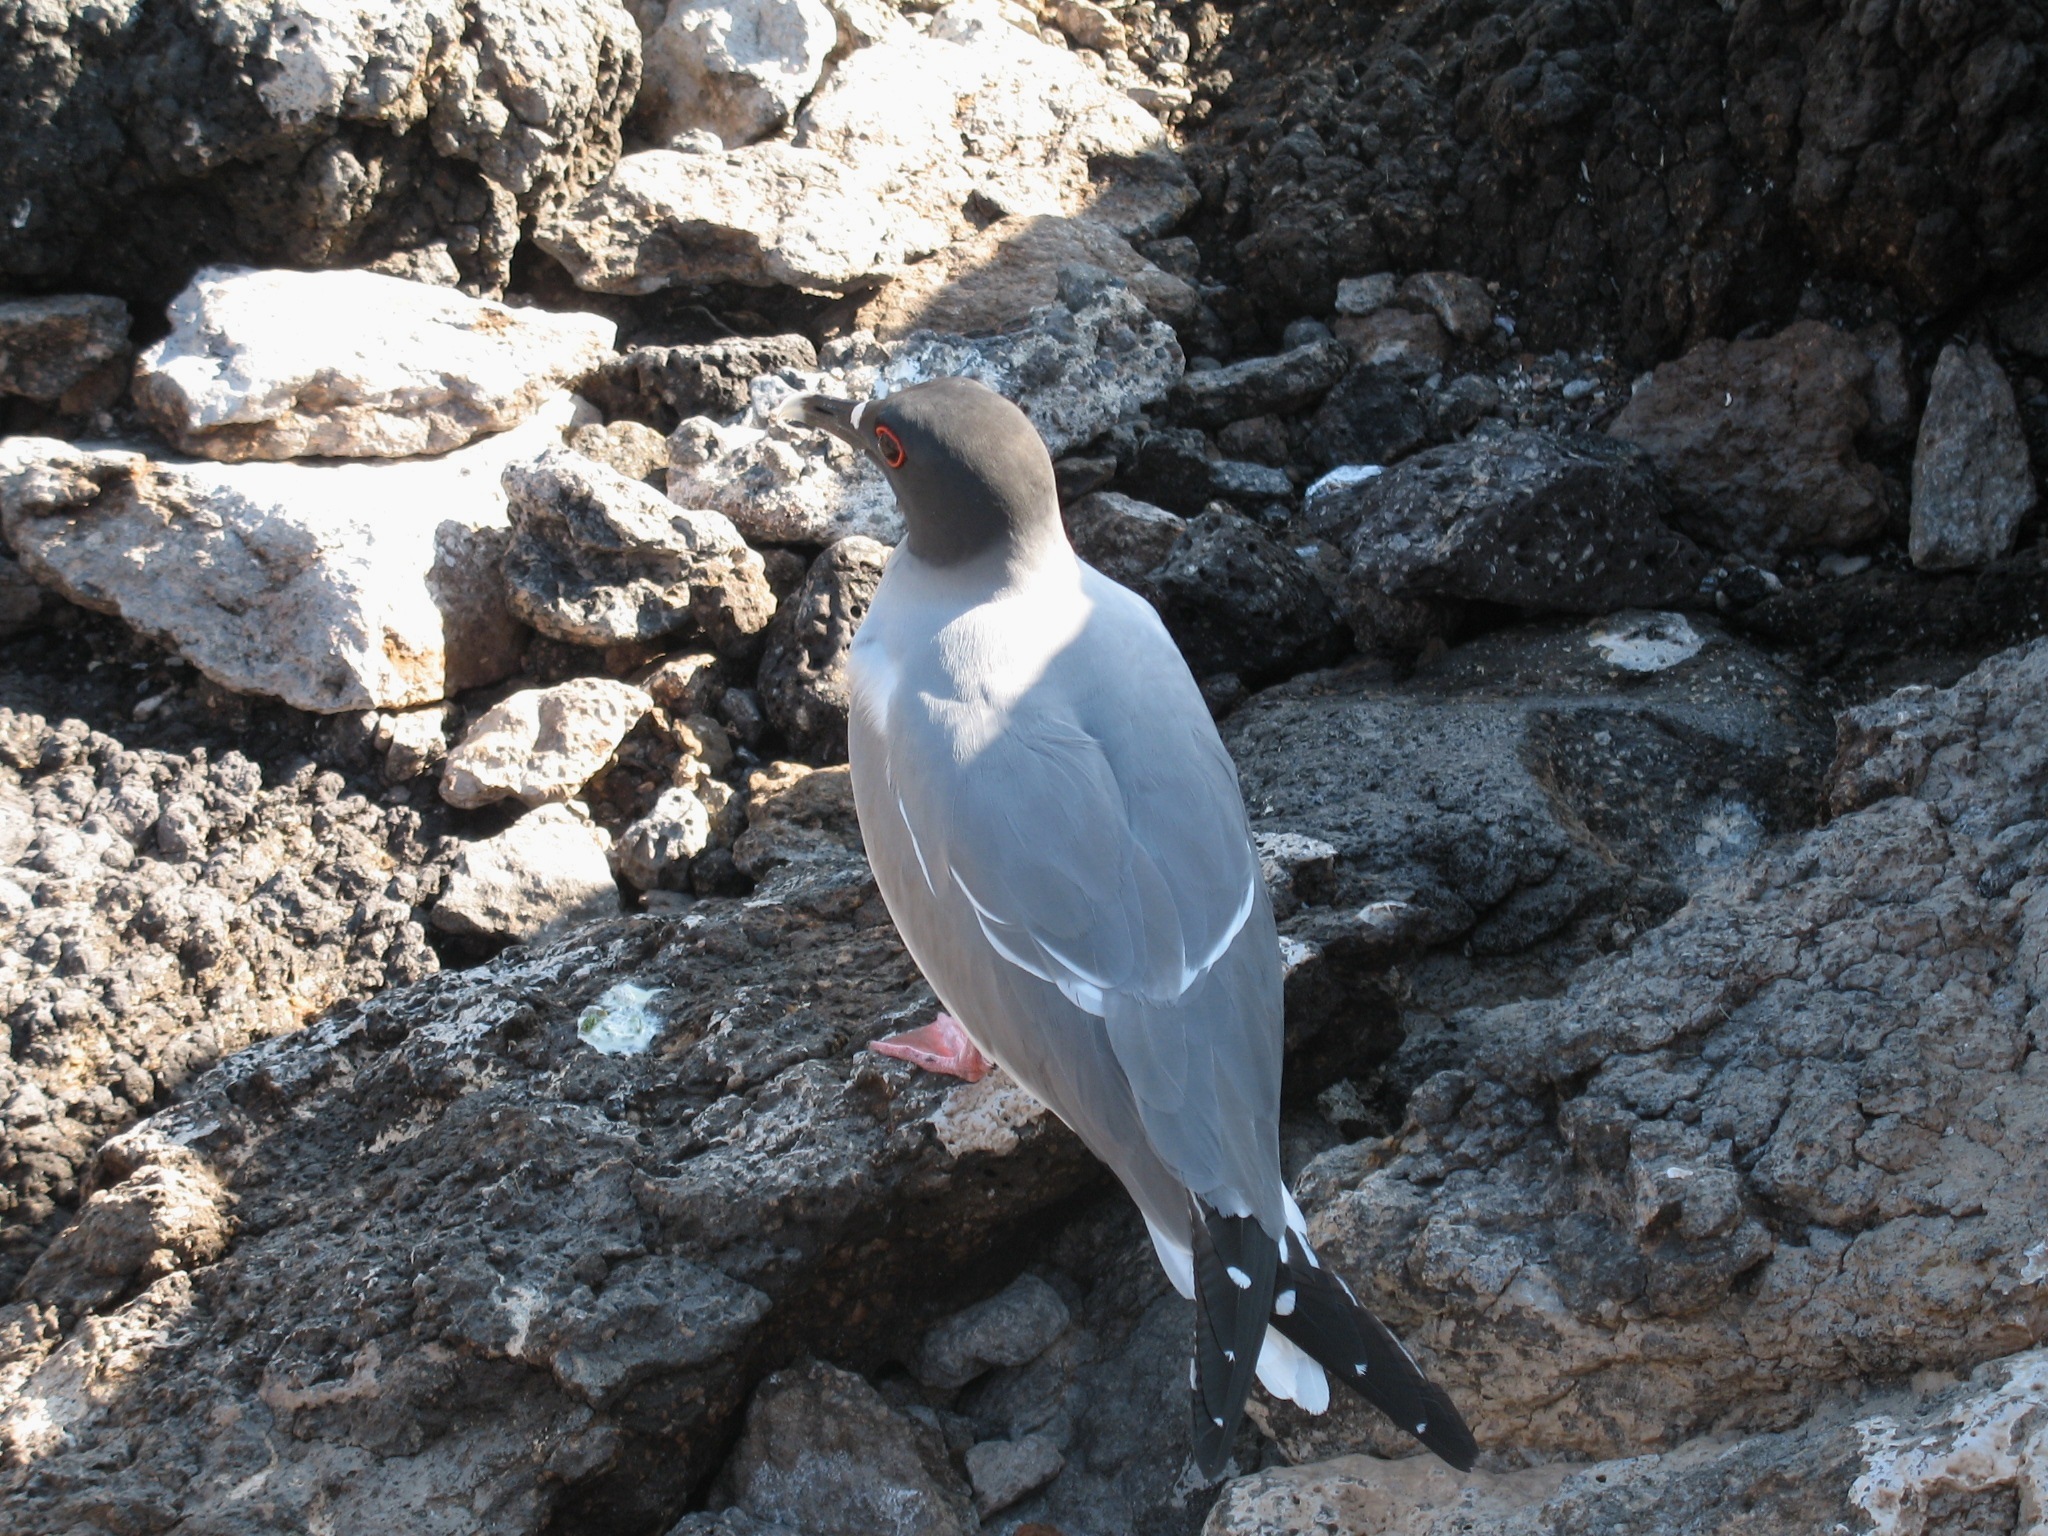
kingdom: Animalia
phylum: Chordata
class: Aves
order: Charadriiformes
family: Laridae
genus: Creagrus
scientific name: Creagrus furcatus
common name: Swallow-tailed gull
